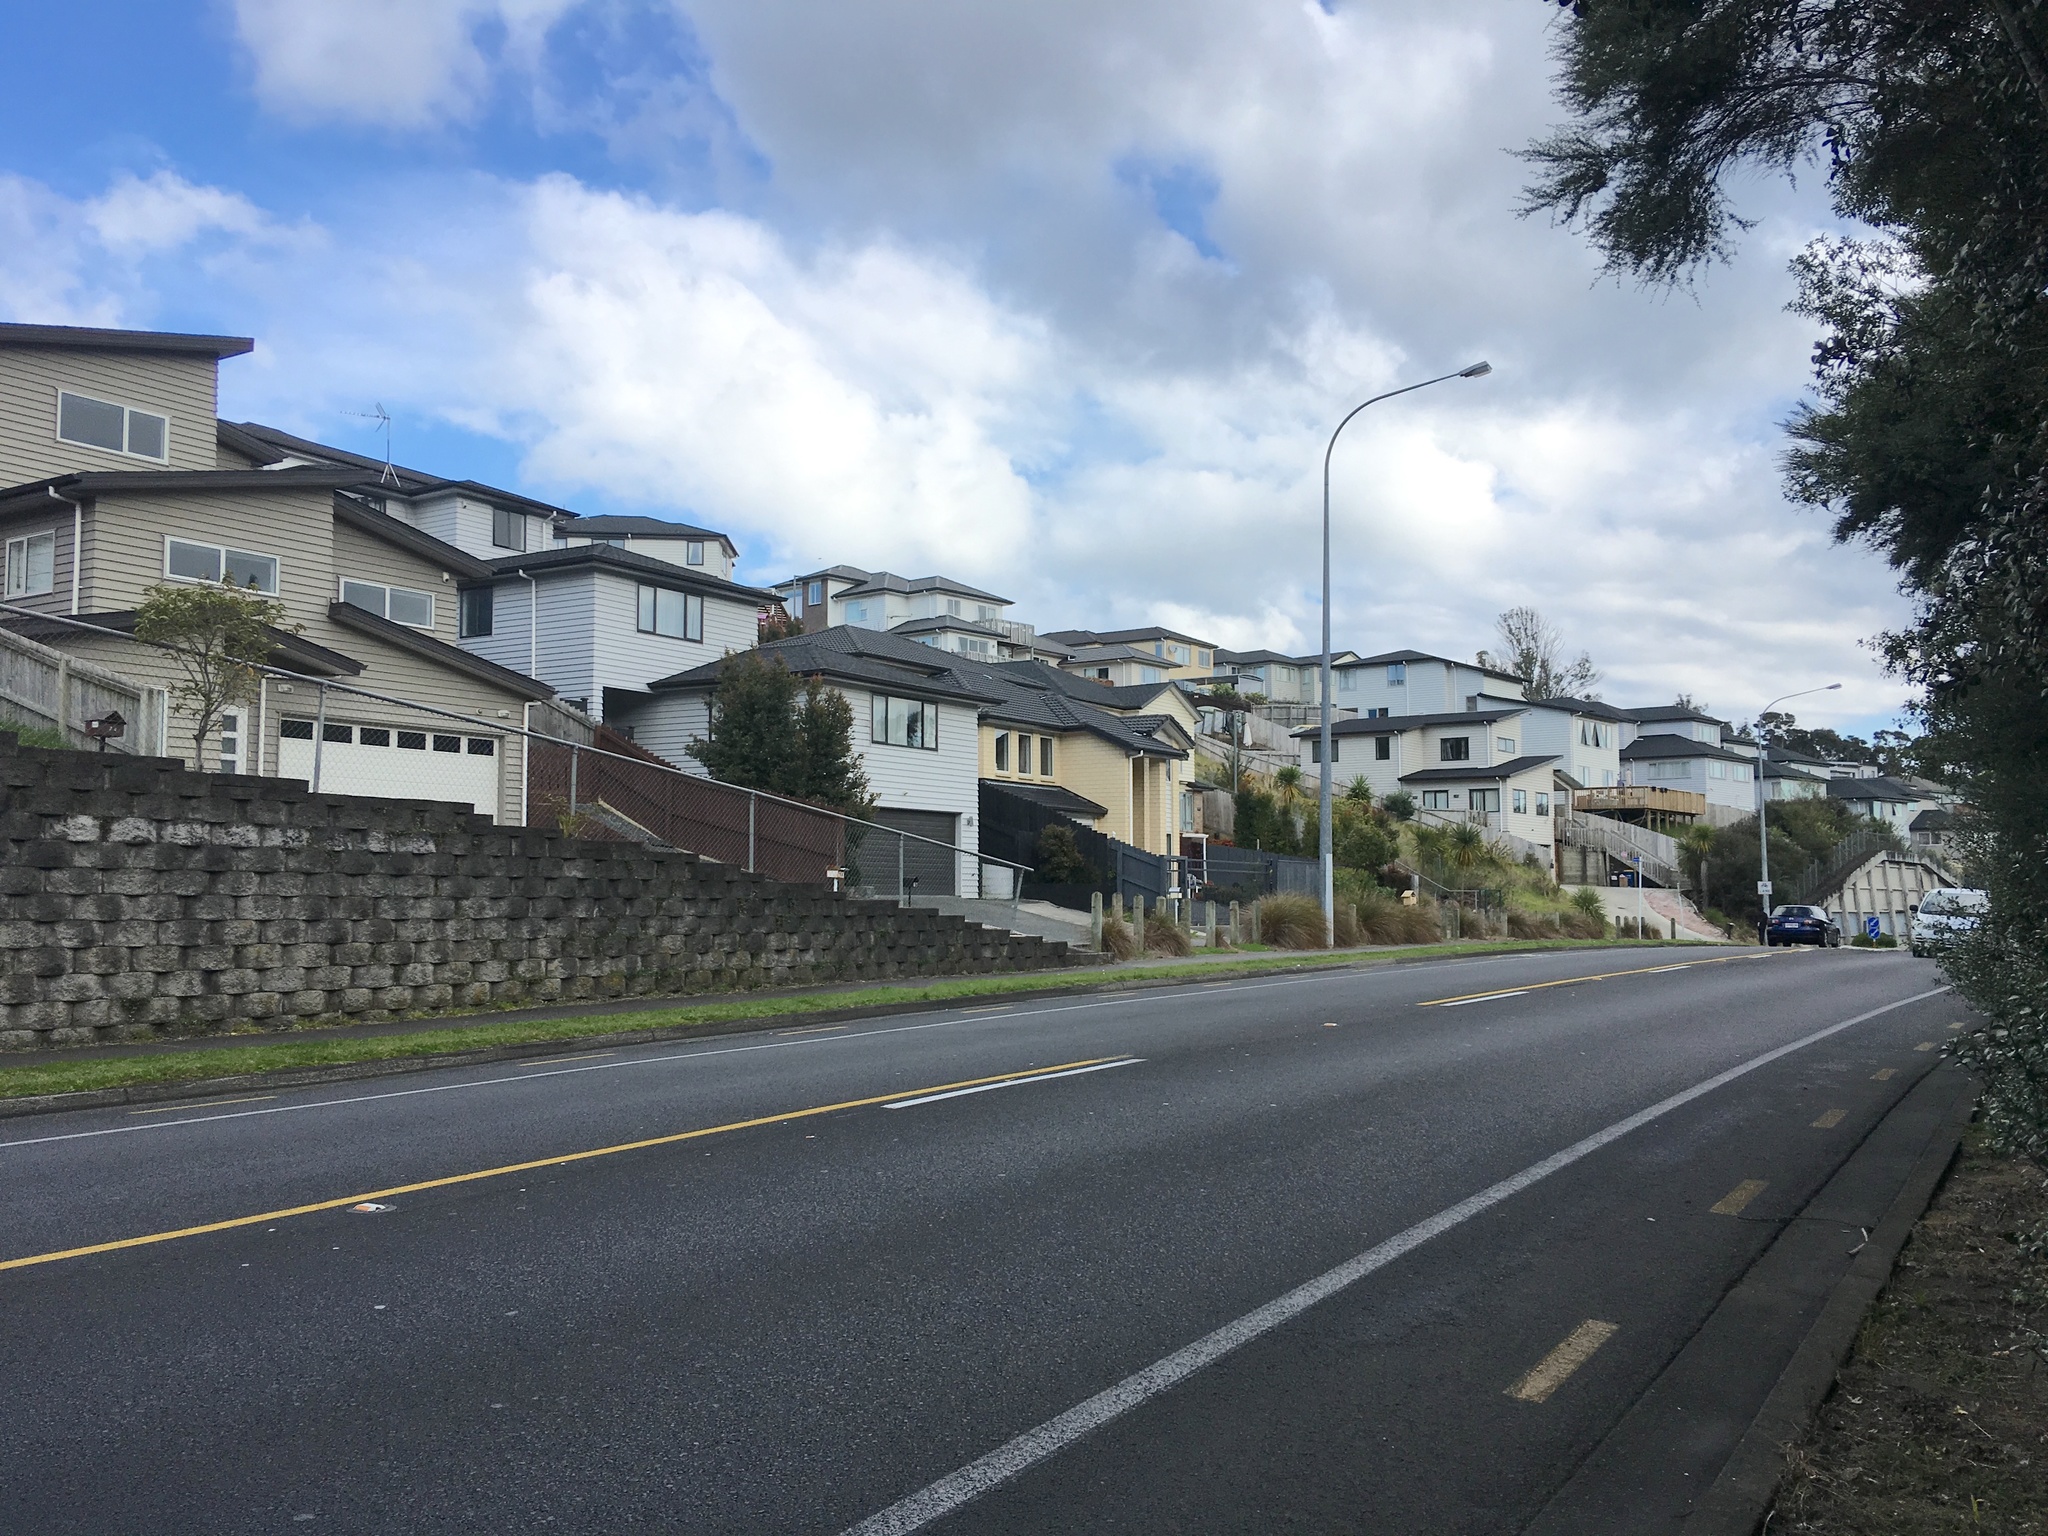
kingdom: Plantae
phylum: Tracheophyta
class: Magnoliopsida
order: Malpighiales
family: Violaceae
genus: Melicytus
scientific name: Melicytus ramiflorus
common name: Mahoe
